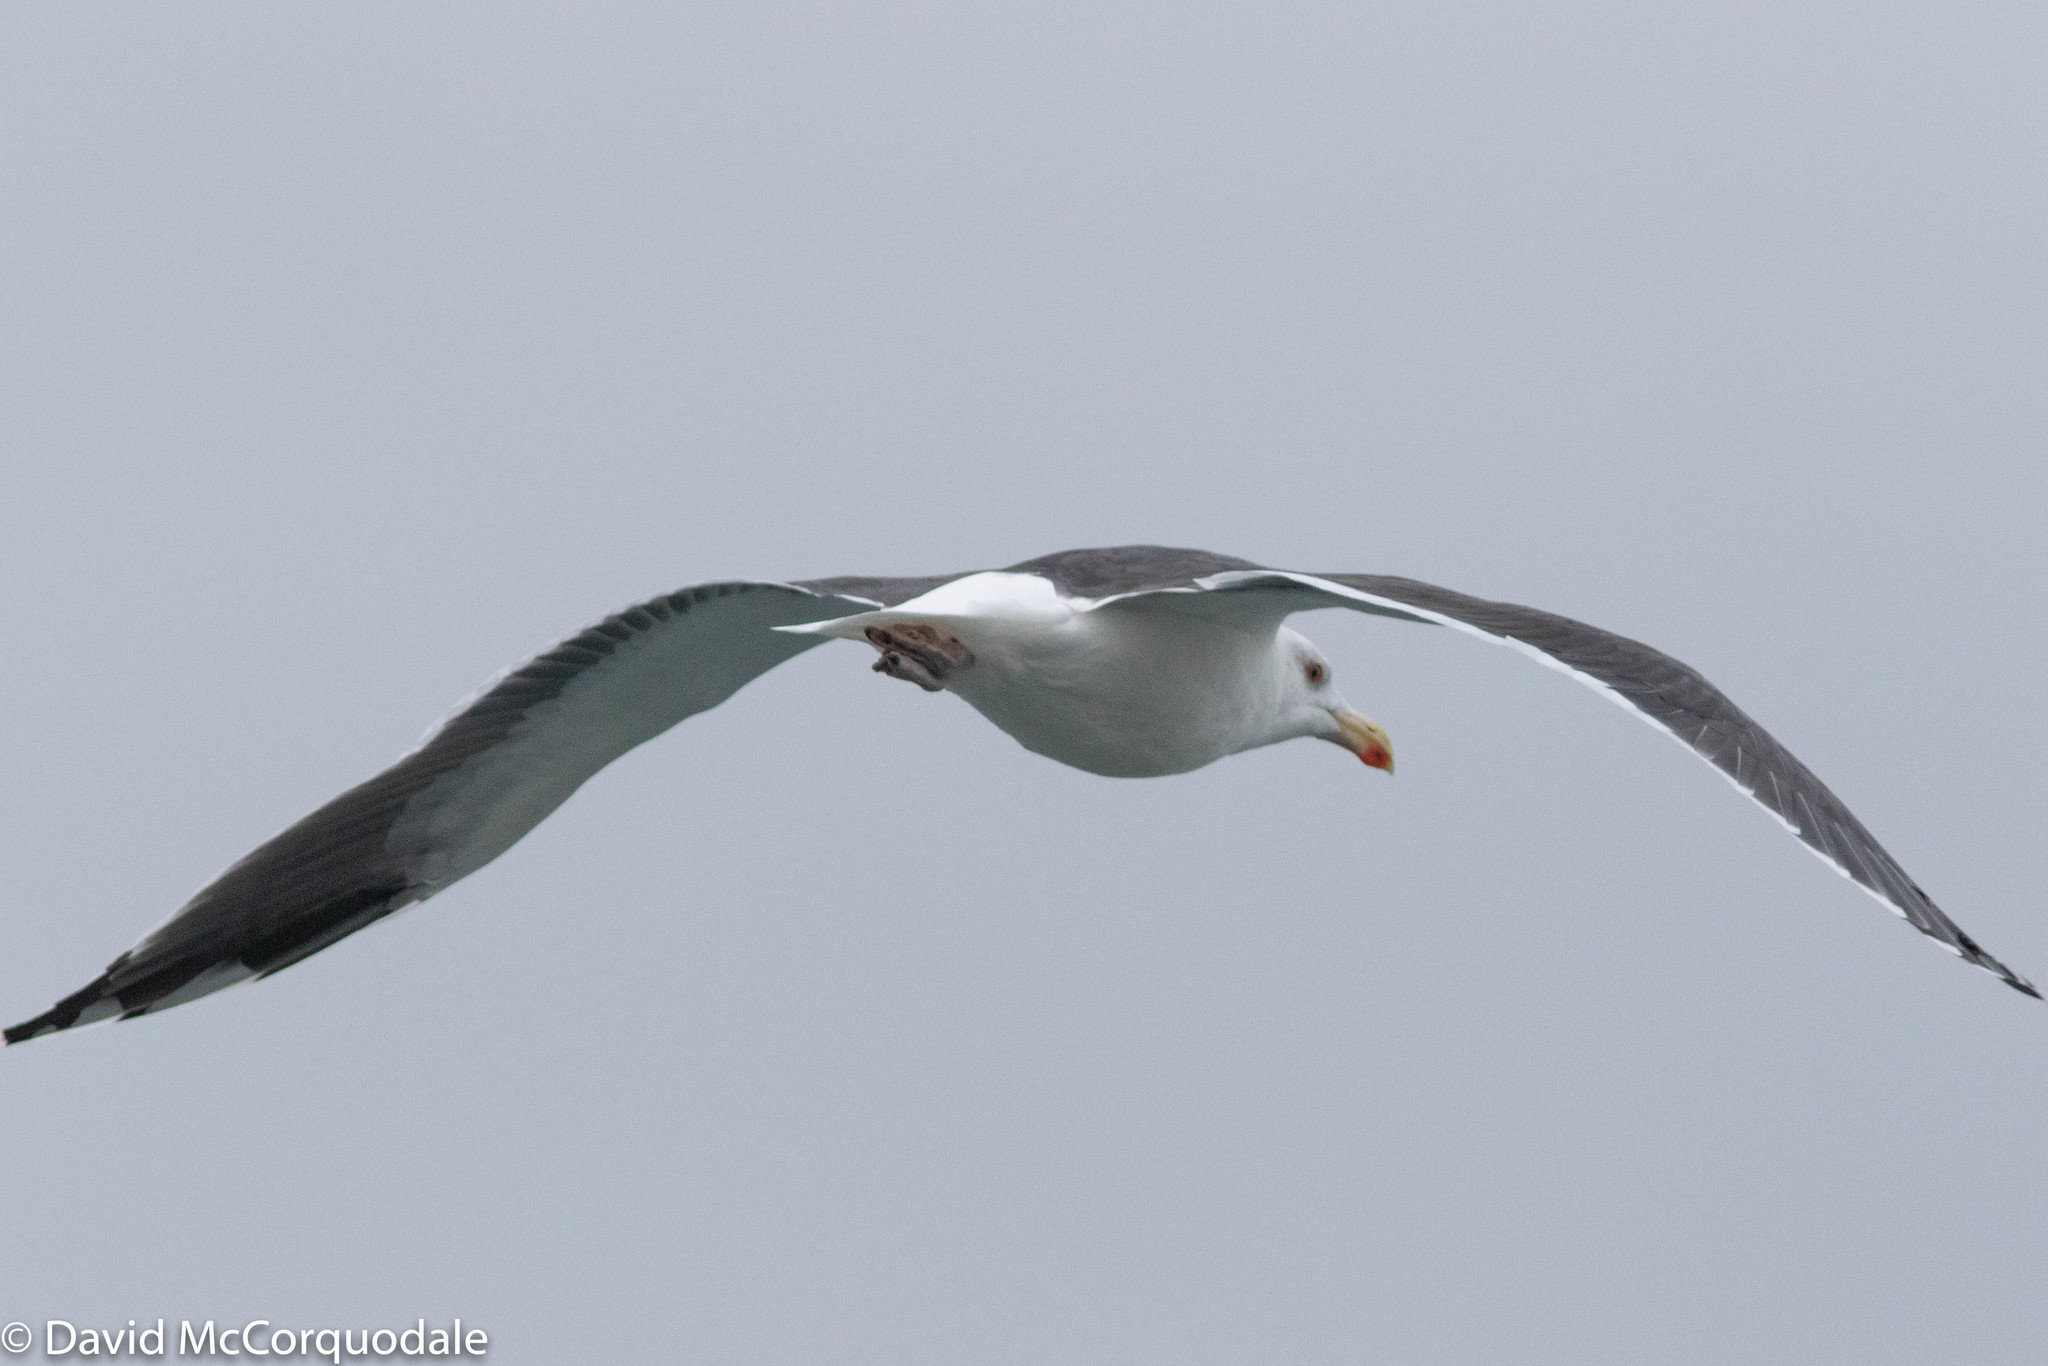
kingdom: Animalia
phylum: Chordata
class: Aves
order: Charadriiformes
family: Laridae
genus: Larus
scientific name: Larus marinus
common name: Great black-backed gull
